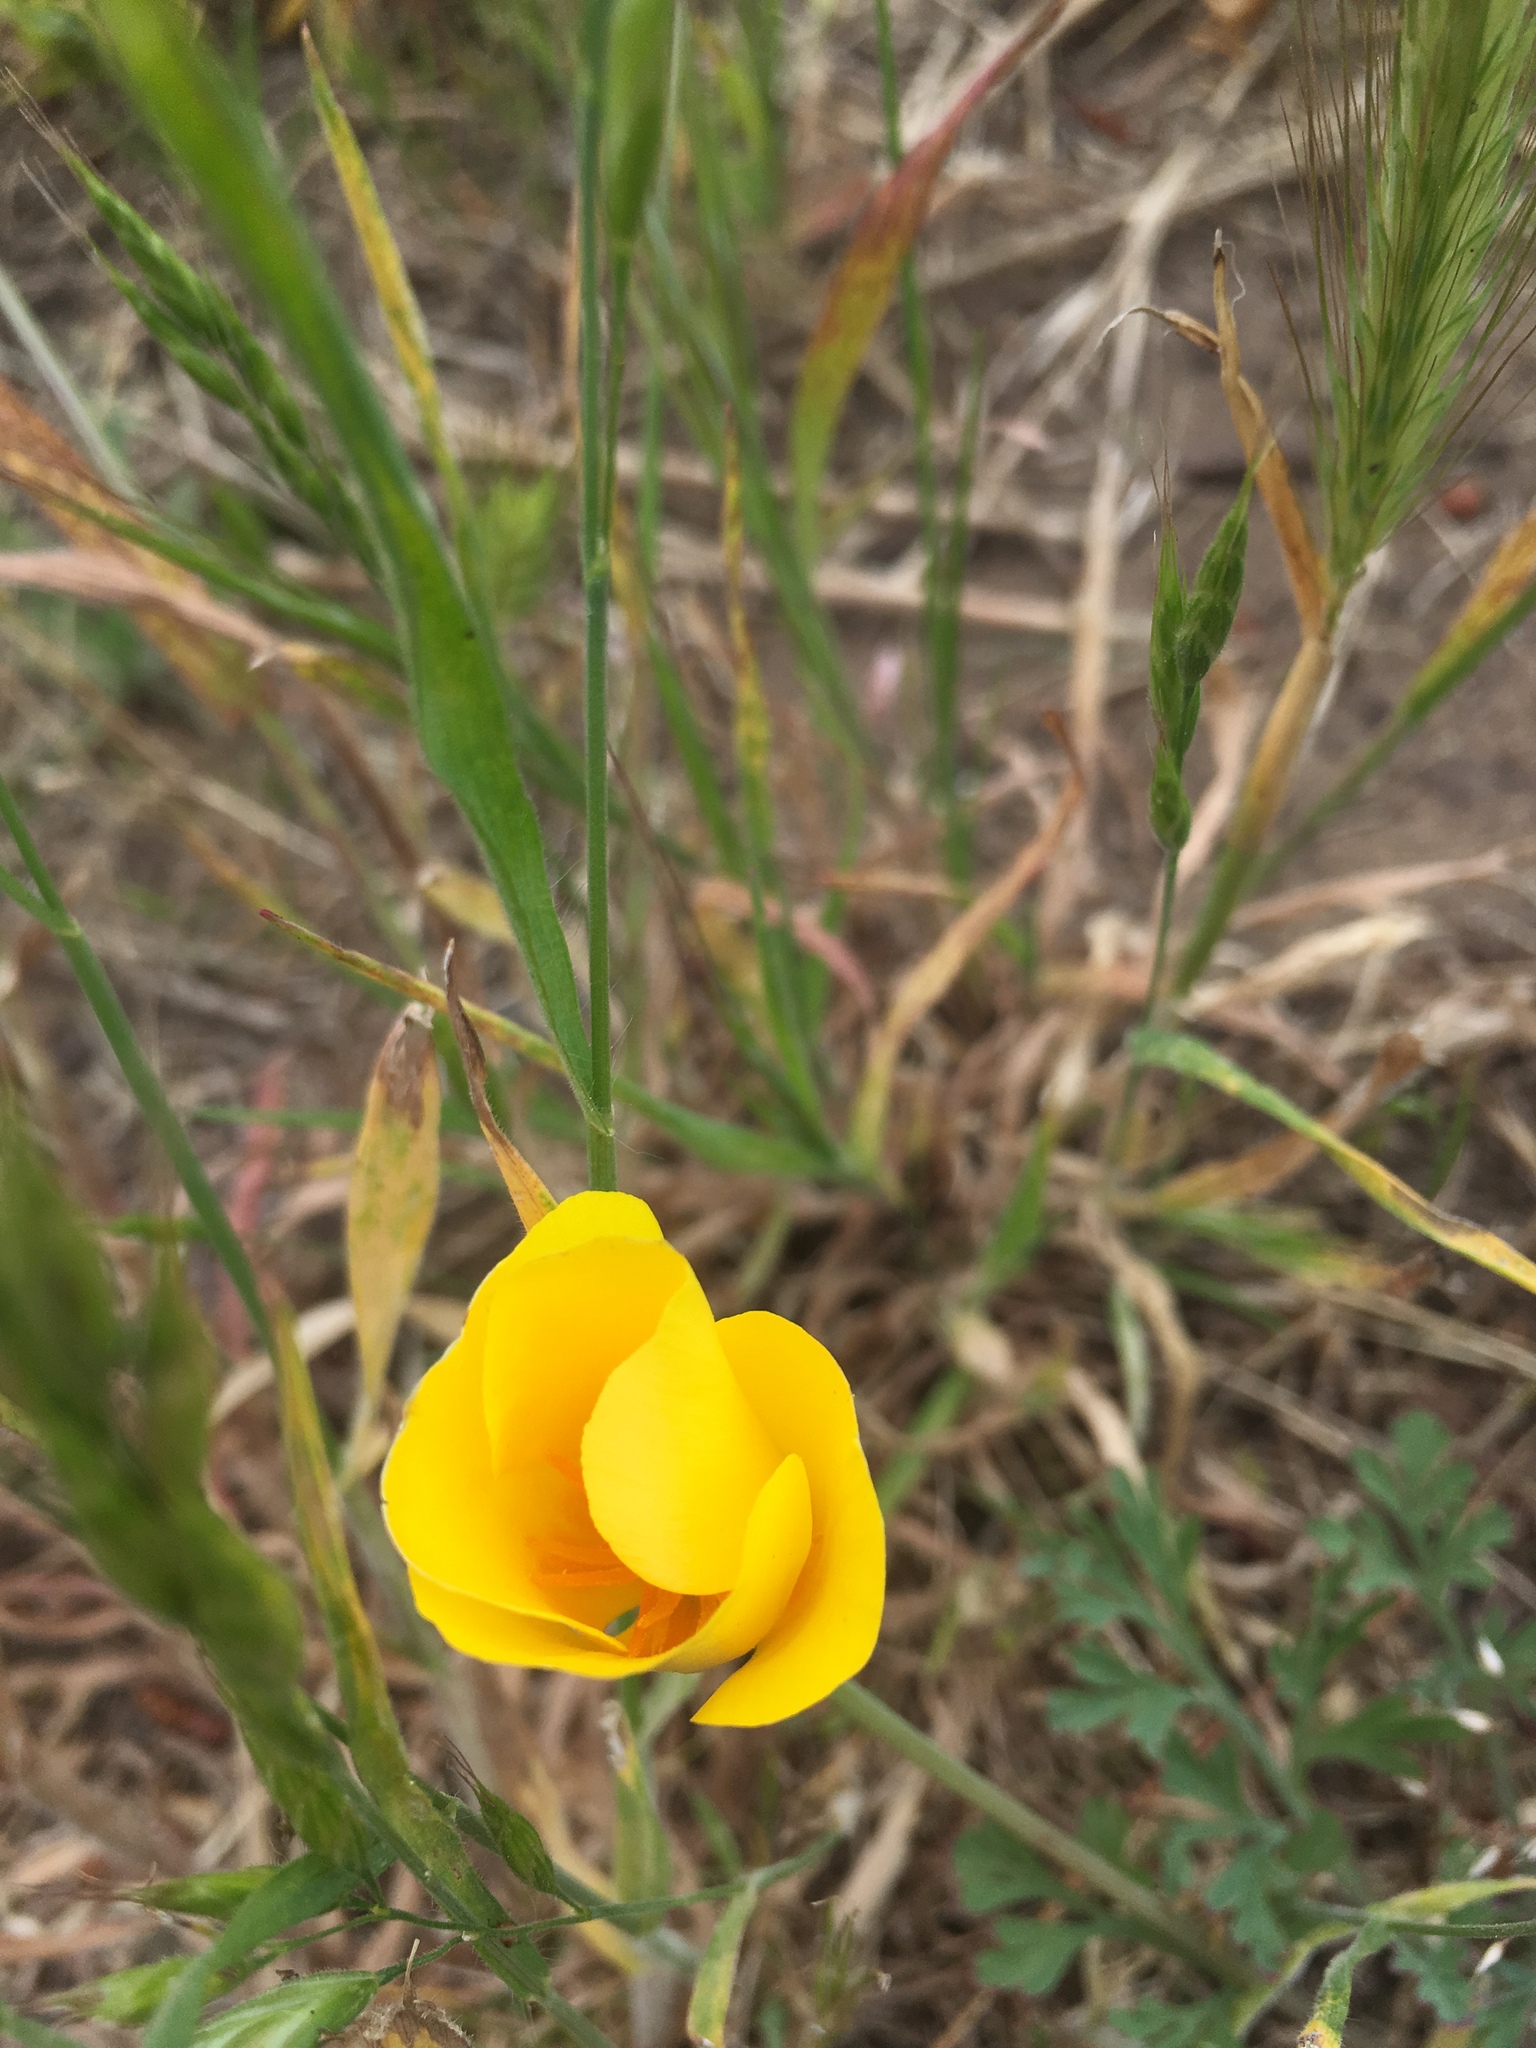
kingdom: Plantae
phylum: Tracheophyta
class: Magnoliopsida
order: Ranunculales
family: Papaveraceae
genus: Eschscholzia
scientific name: Eschscholzia californica
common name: California poppy
